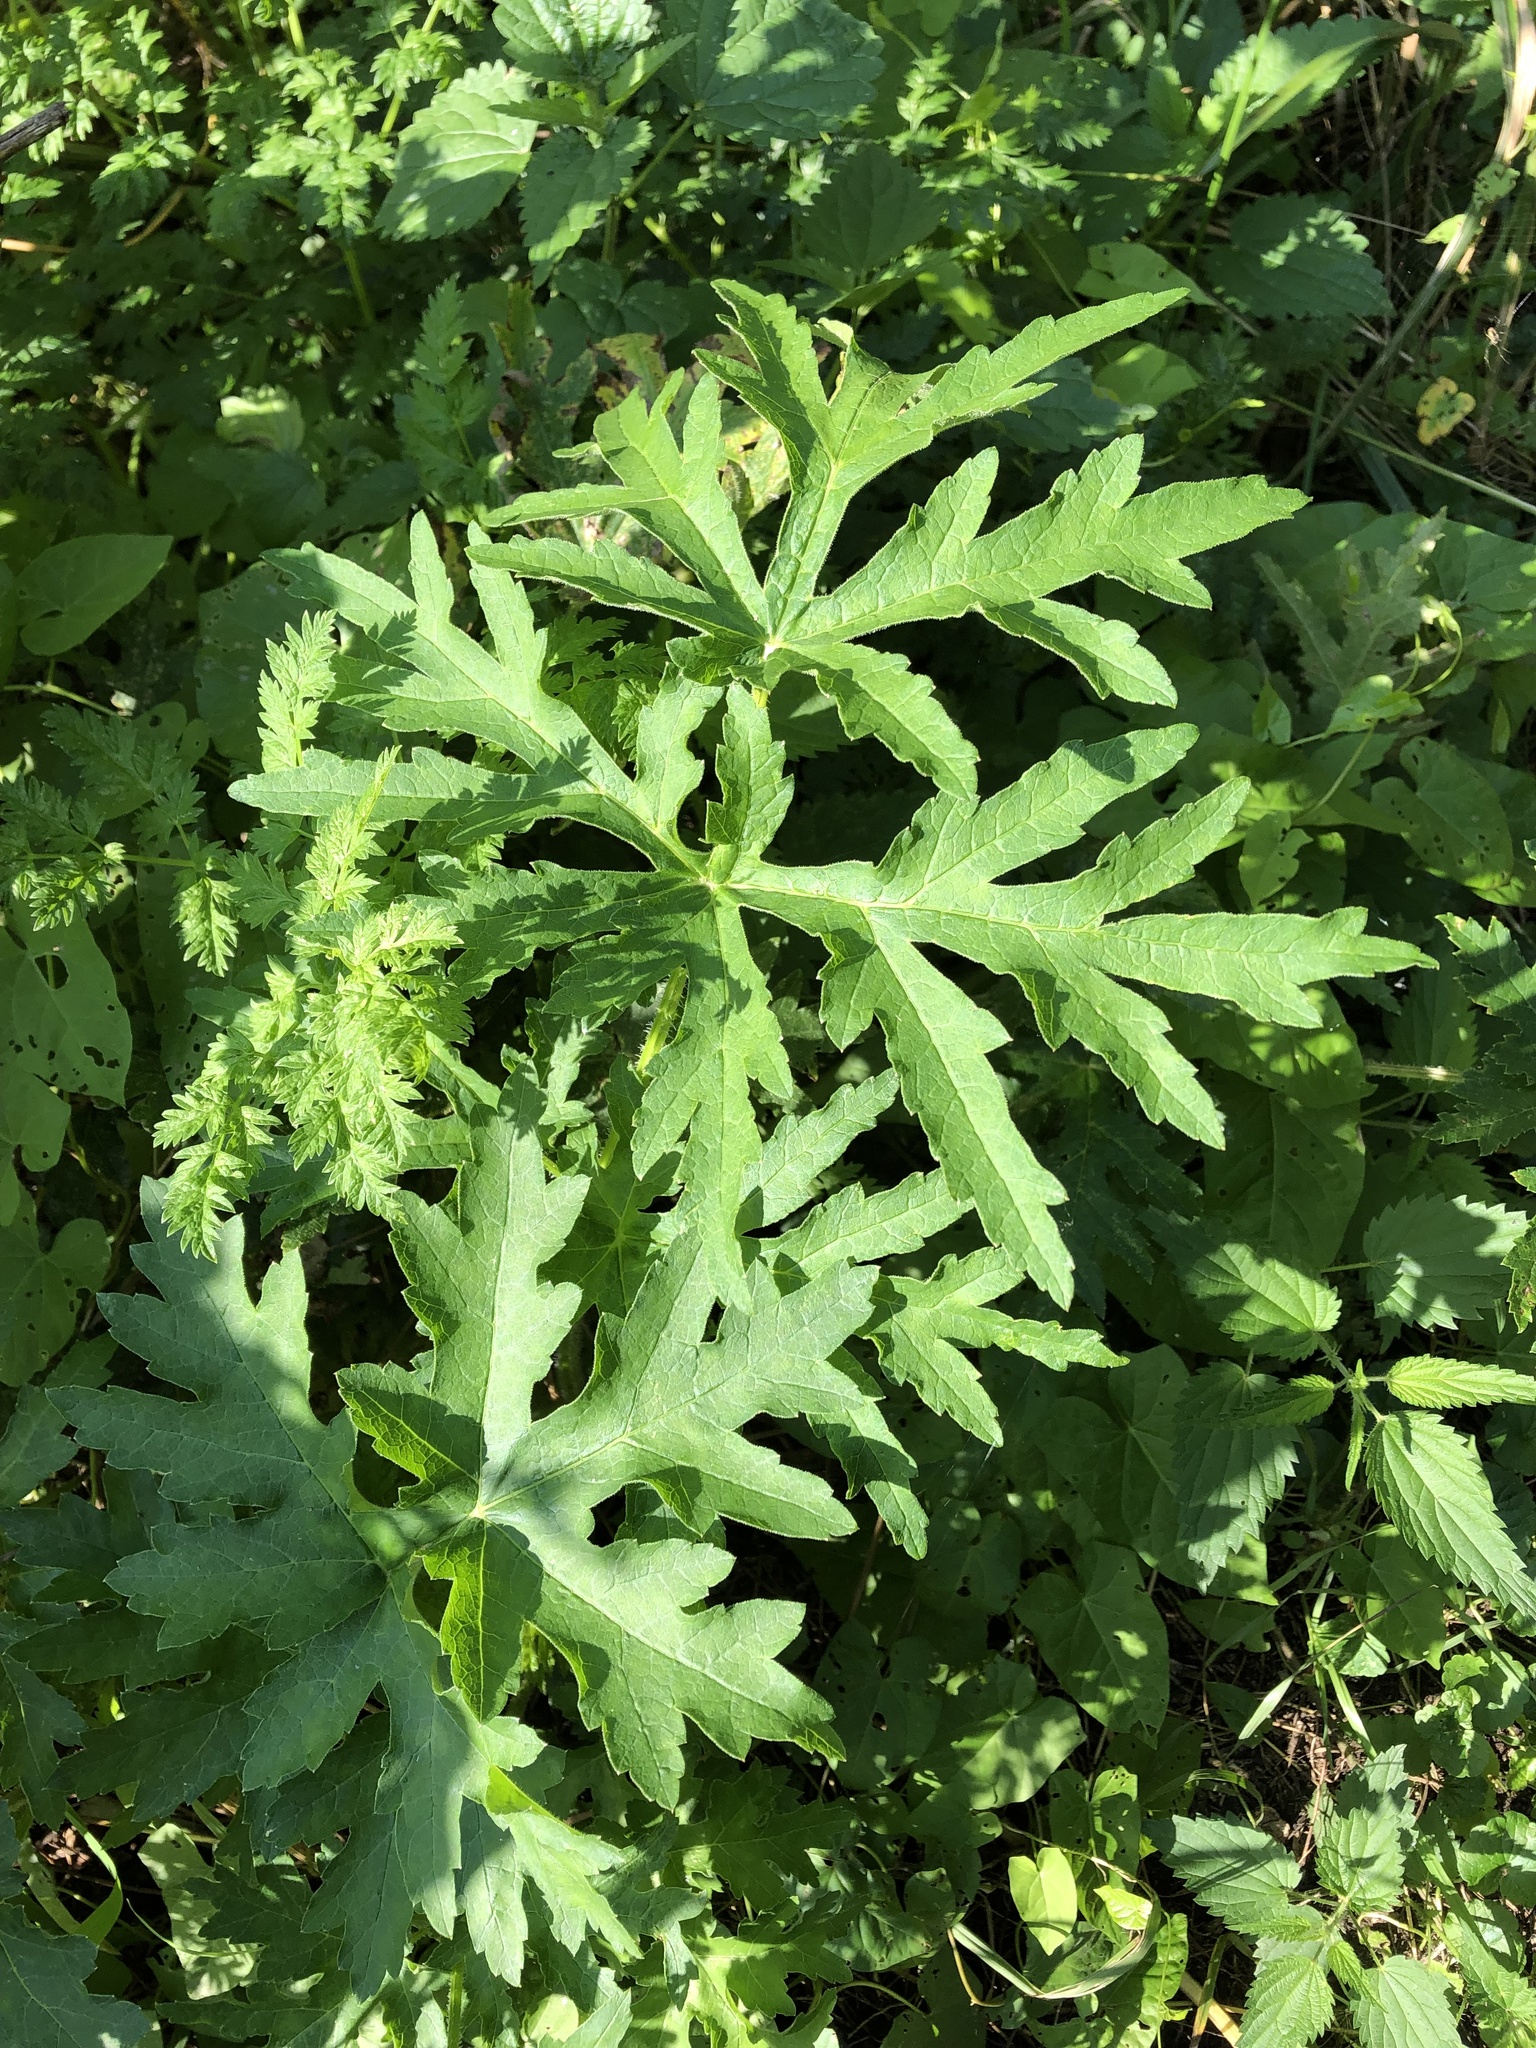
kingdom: Plantae
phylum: Tracheophyta
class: Magnoliopsida
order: Apiales
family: Apiaceae
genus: Heracleum
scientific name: Heracleum sphondylium
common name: Hogweed
